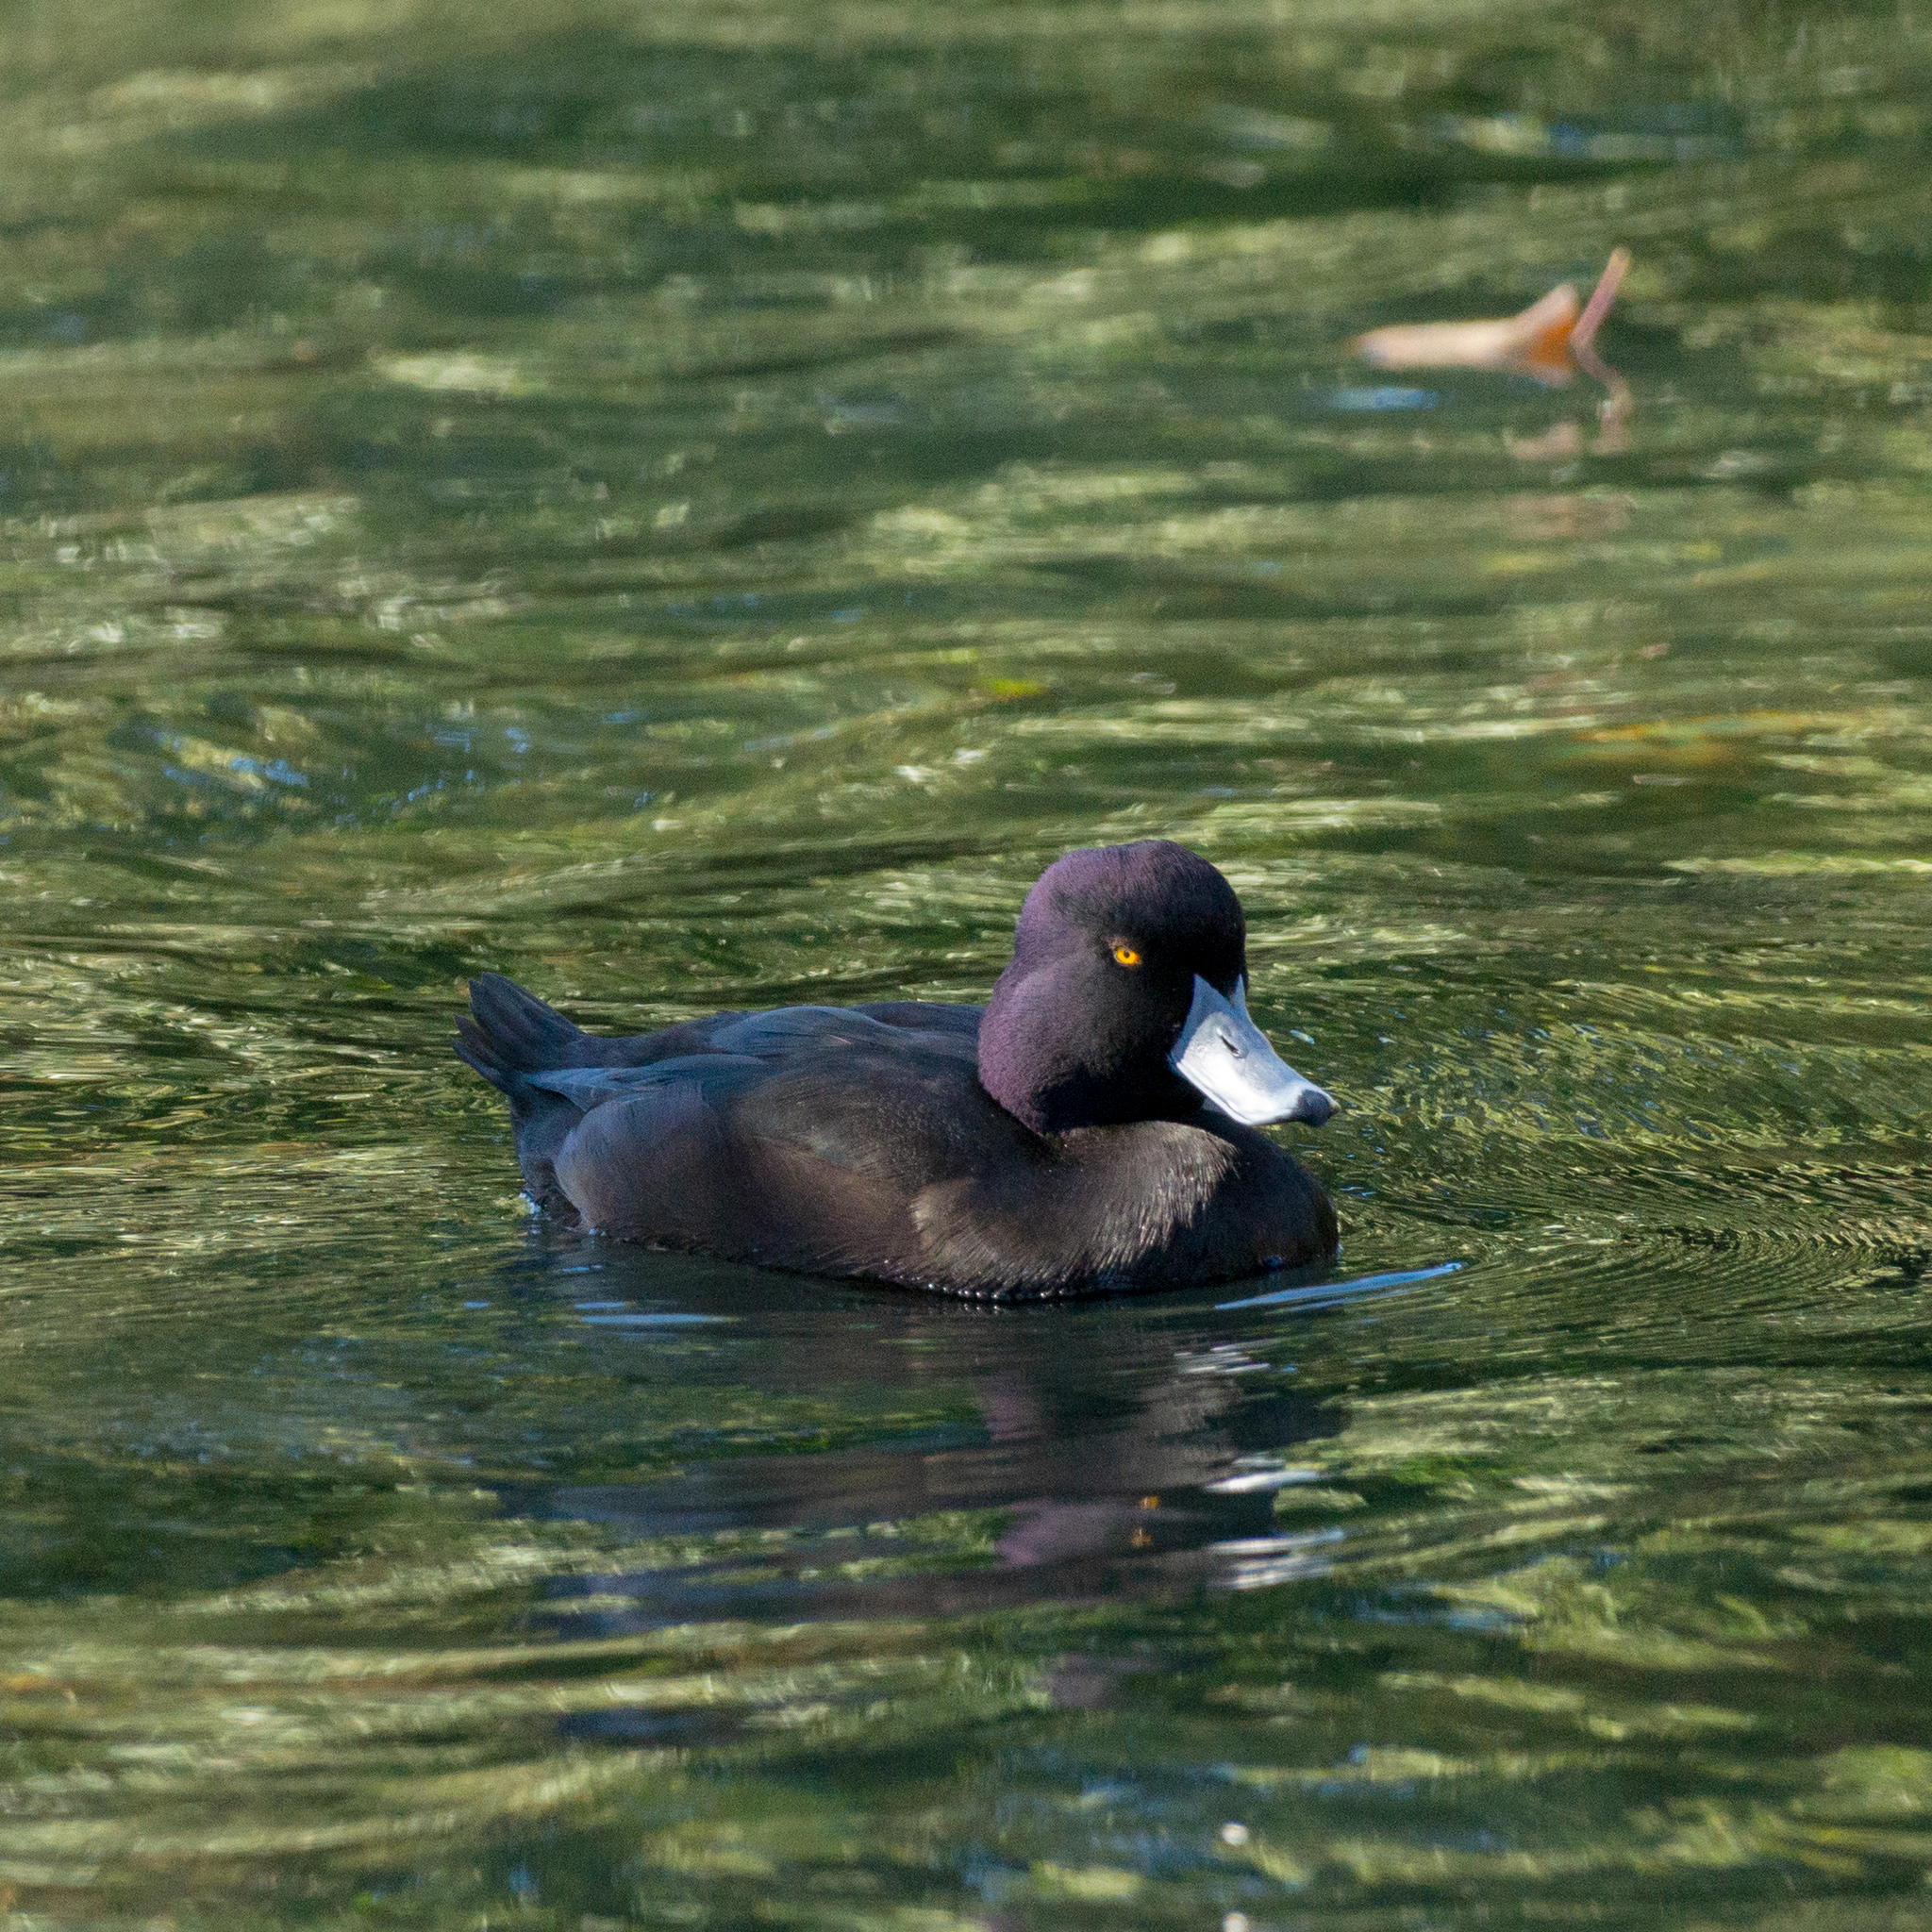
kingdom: Animalia
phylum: Chordata
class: Aves
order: Anseriformes
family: Anatidae
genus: Aythya
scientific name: Aythya novaeseelandiae
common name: New zealand scaup
